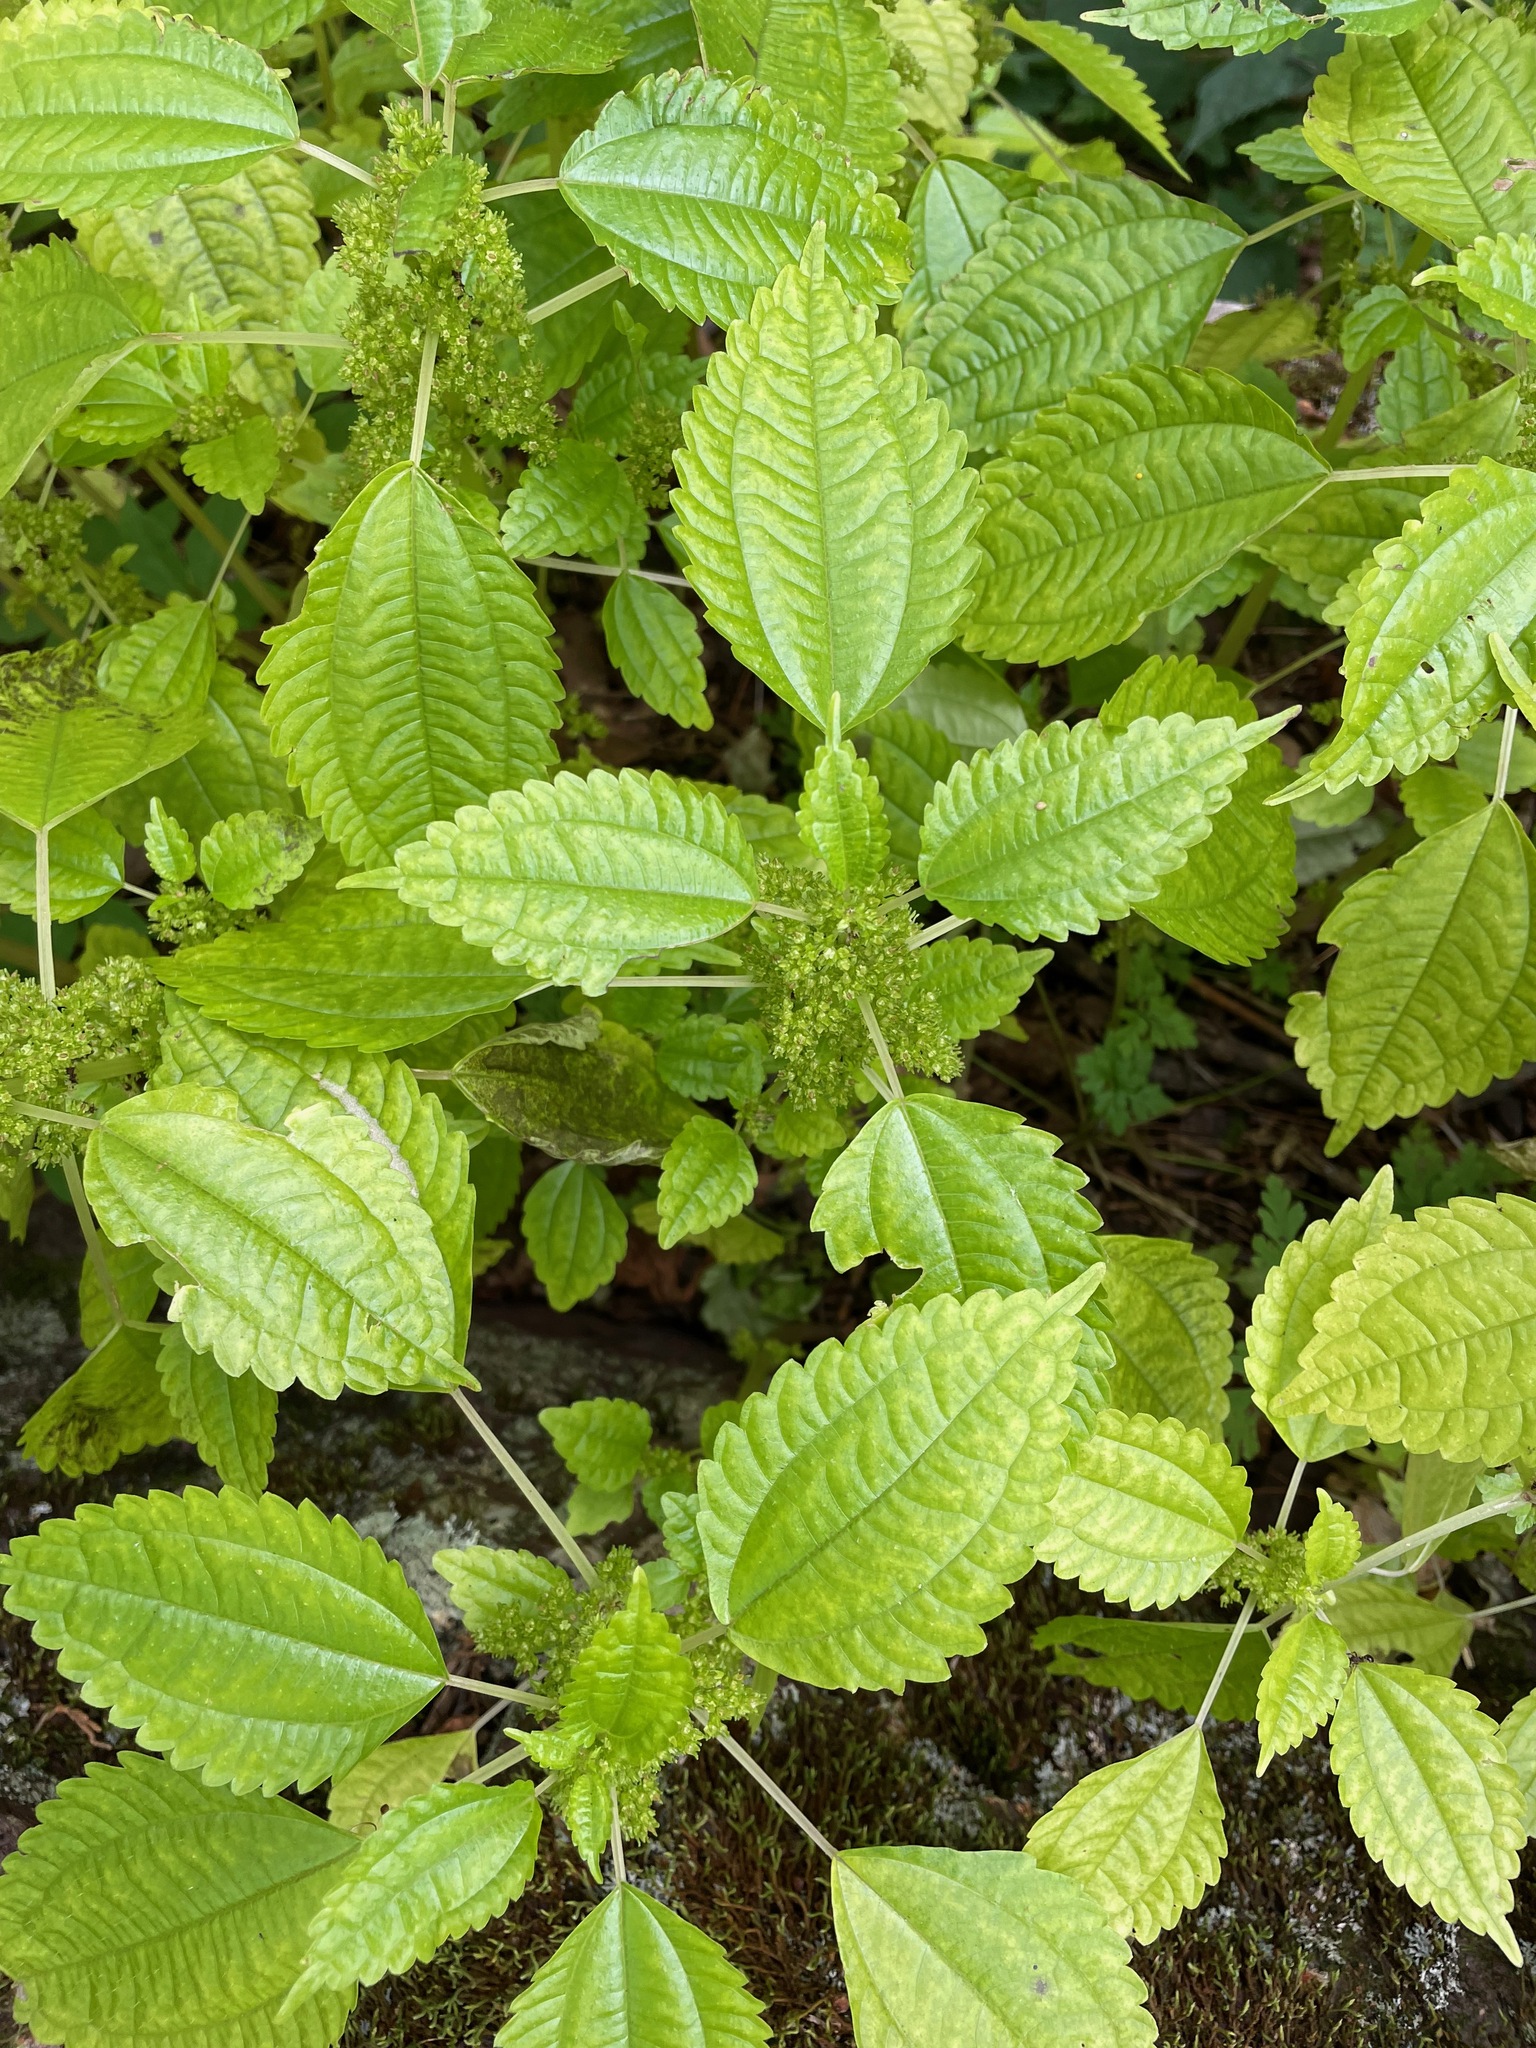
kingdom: Plantae
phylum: Tracheophyta
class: Magnoliopsida
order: Rosales
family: Urticaceae
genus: Pilea
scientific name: Pilea pumila
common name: Clearweed
